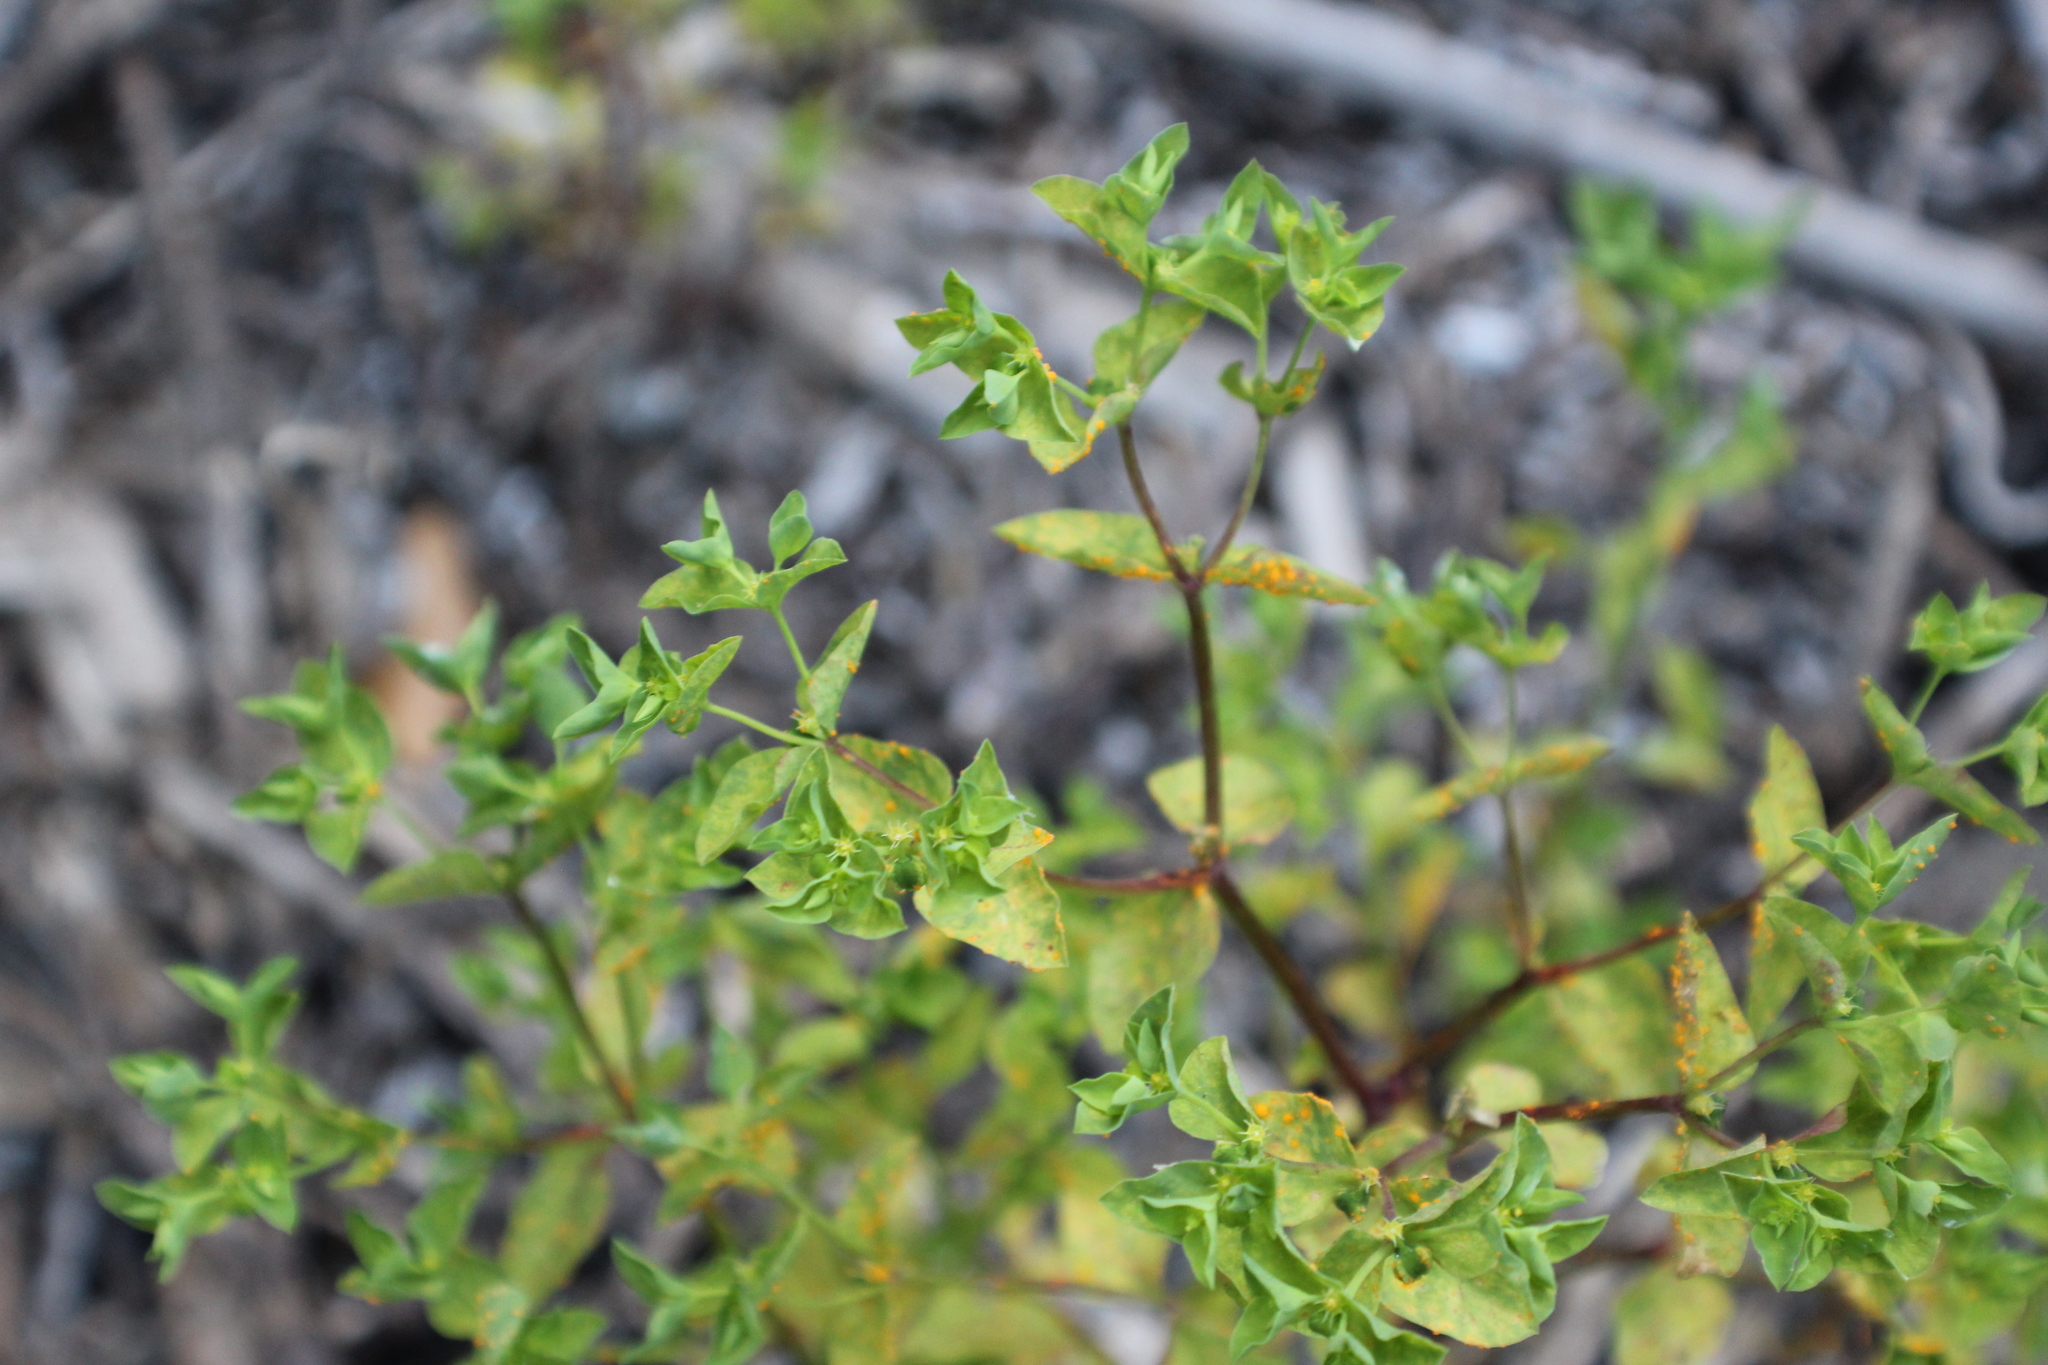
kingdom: Plantae
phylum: Tracheophyta
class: Magnoliopsida
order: Malpighiales
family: Euphorbiaceae
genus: Euphorbia
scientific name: Euphorbia peplus
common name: Petty spurge
